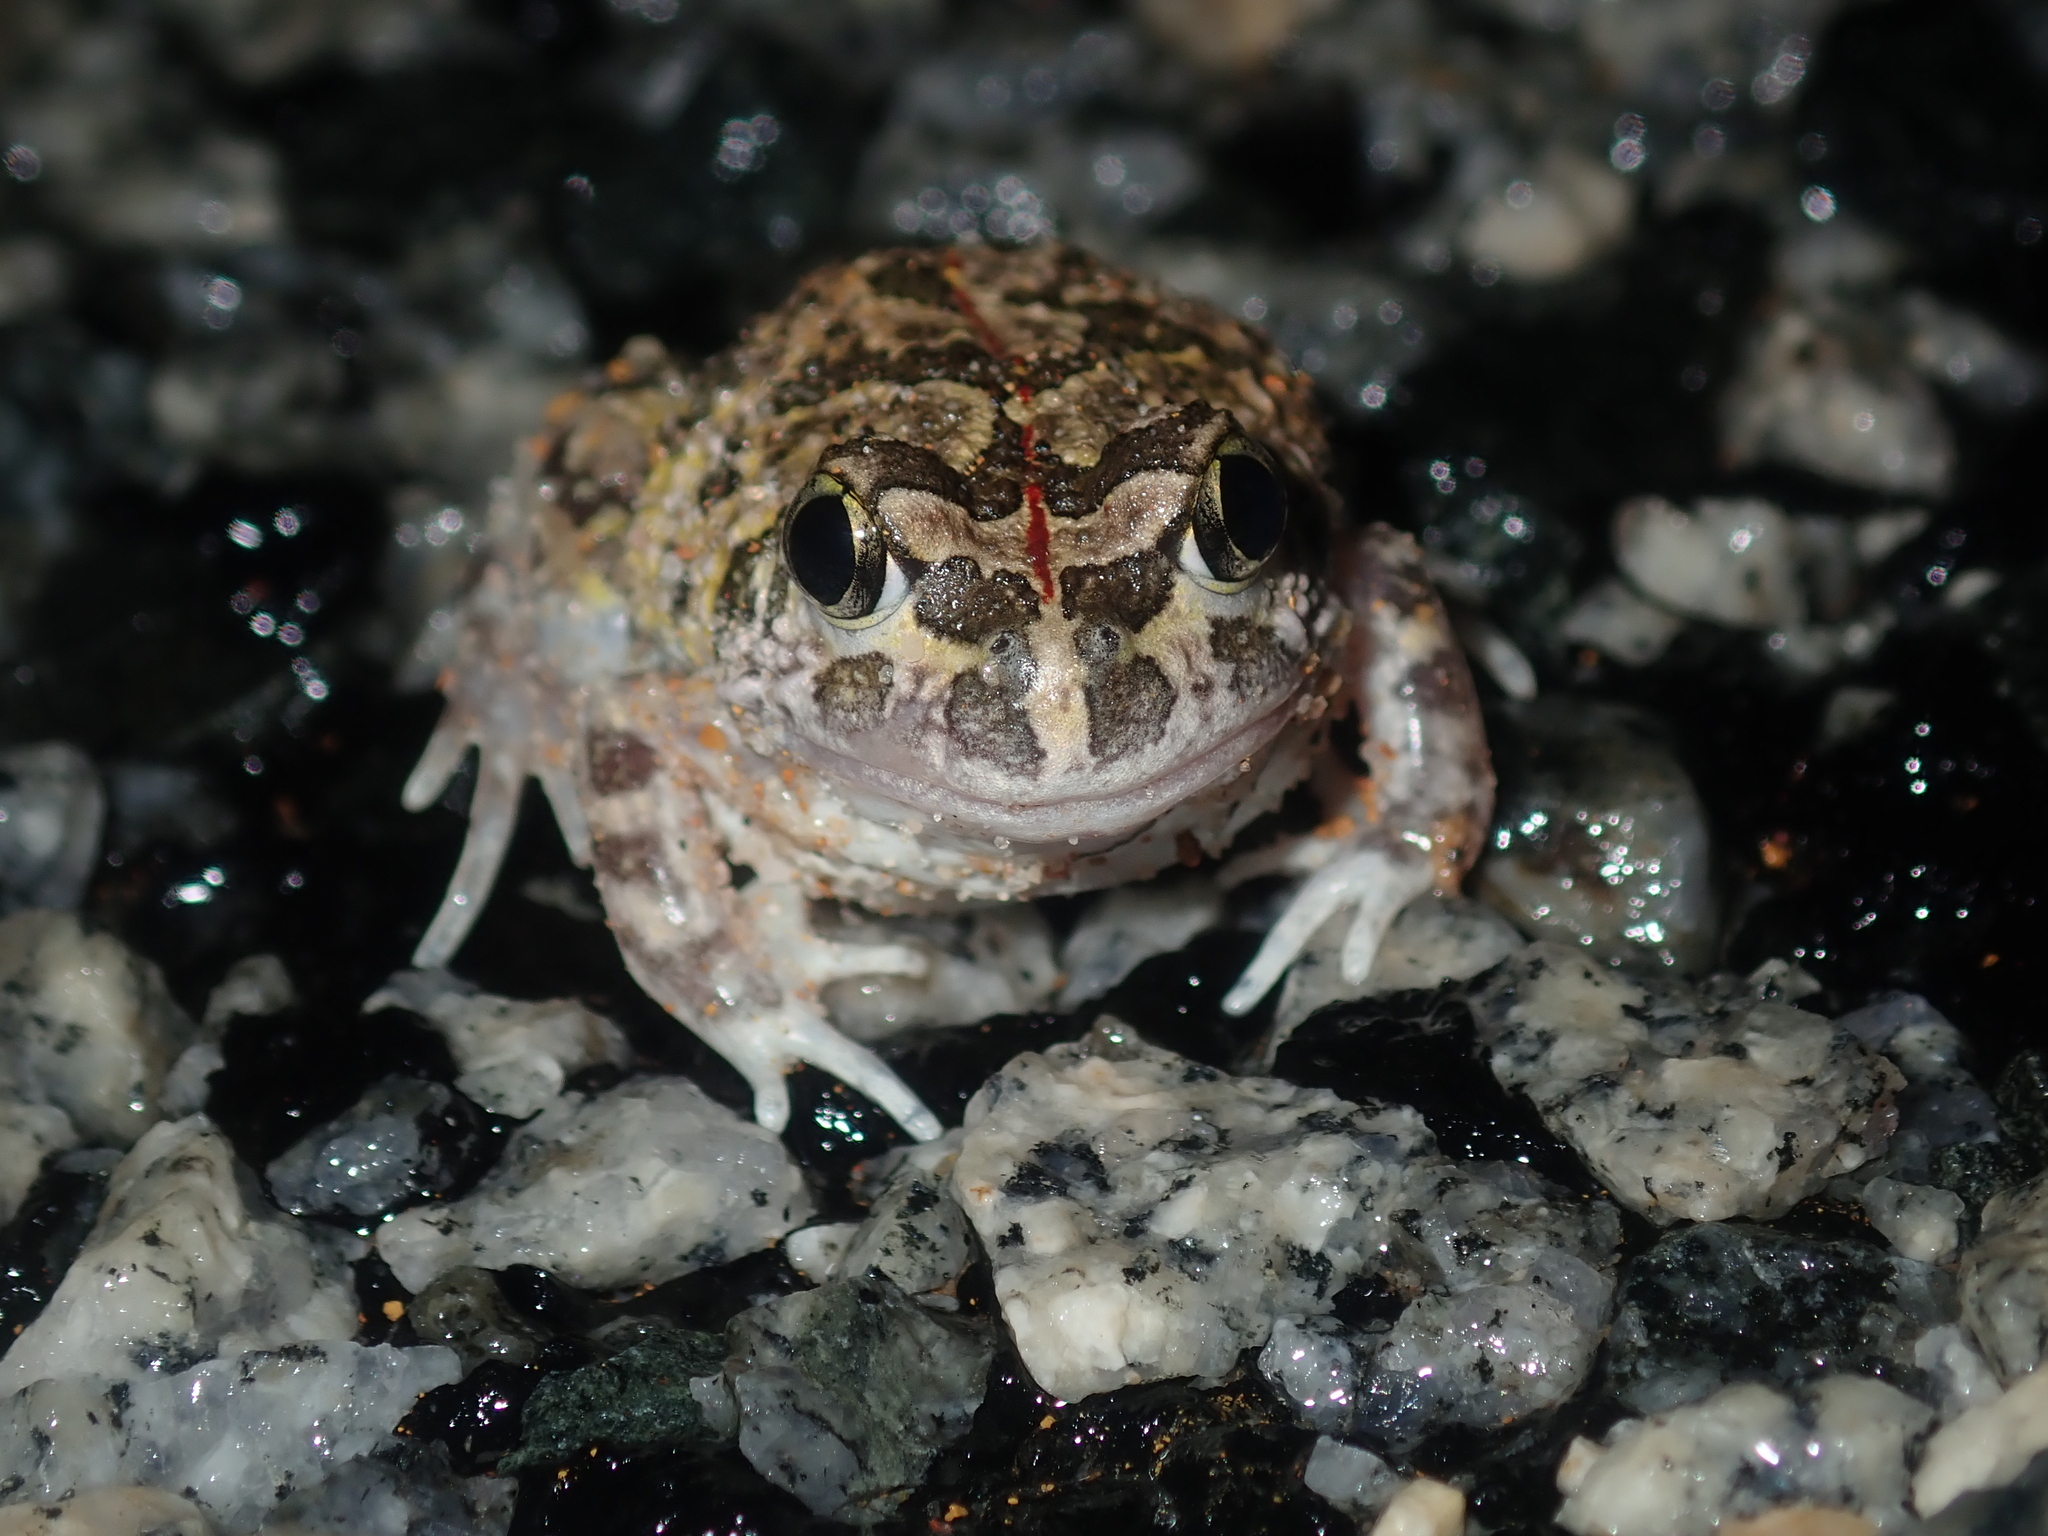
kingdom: Animalia
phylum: Chordata
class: Amphibia
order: Anura
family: Limnodynastidae
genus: Neobatrachus
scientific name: Neobatrachus pelobatoides
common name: Humming frog
